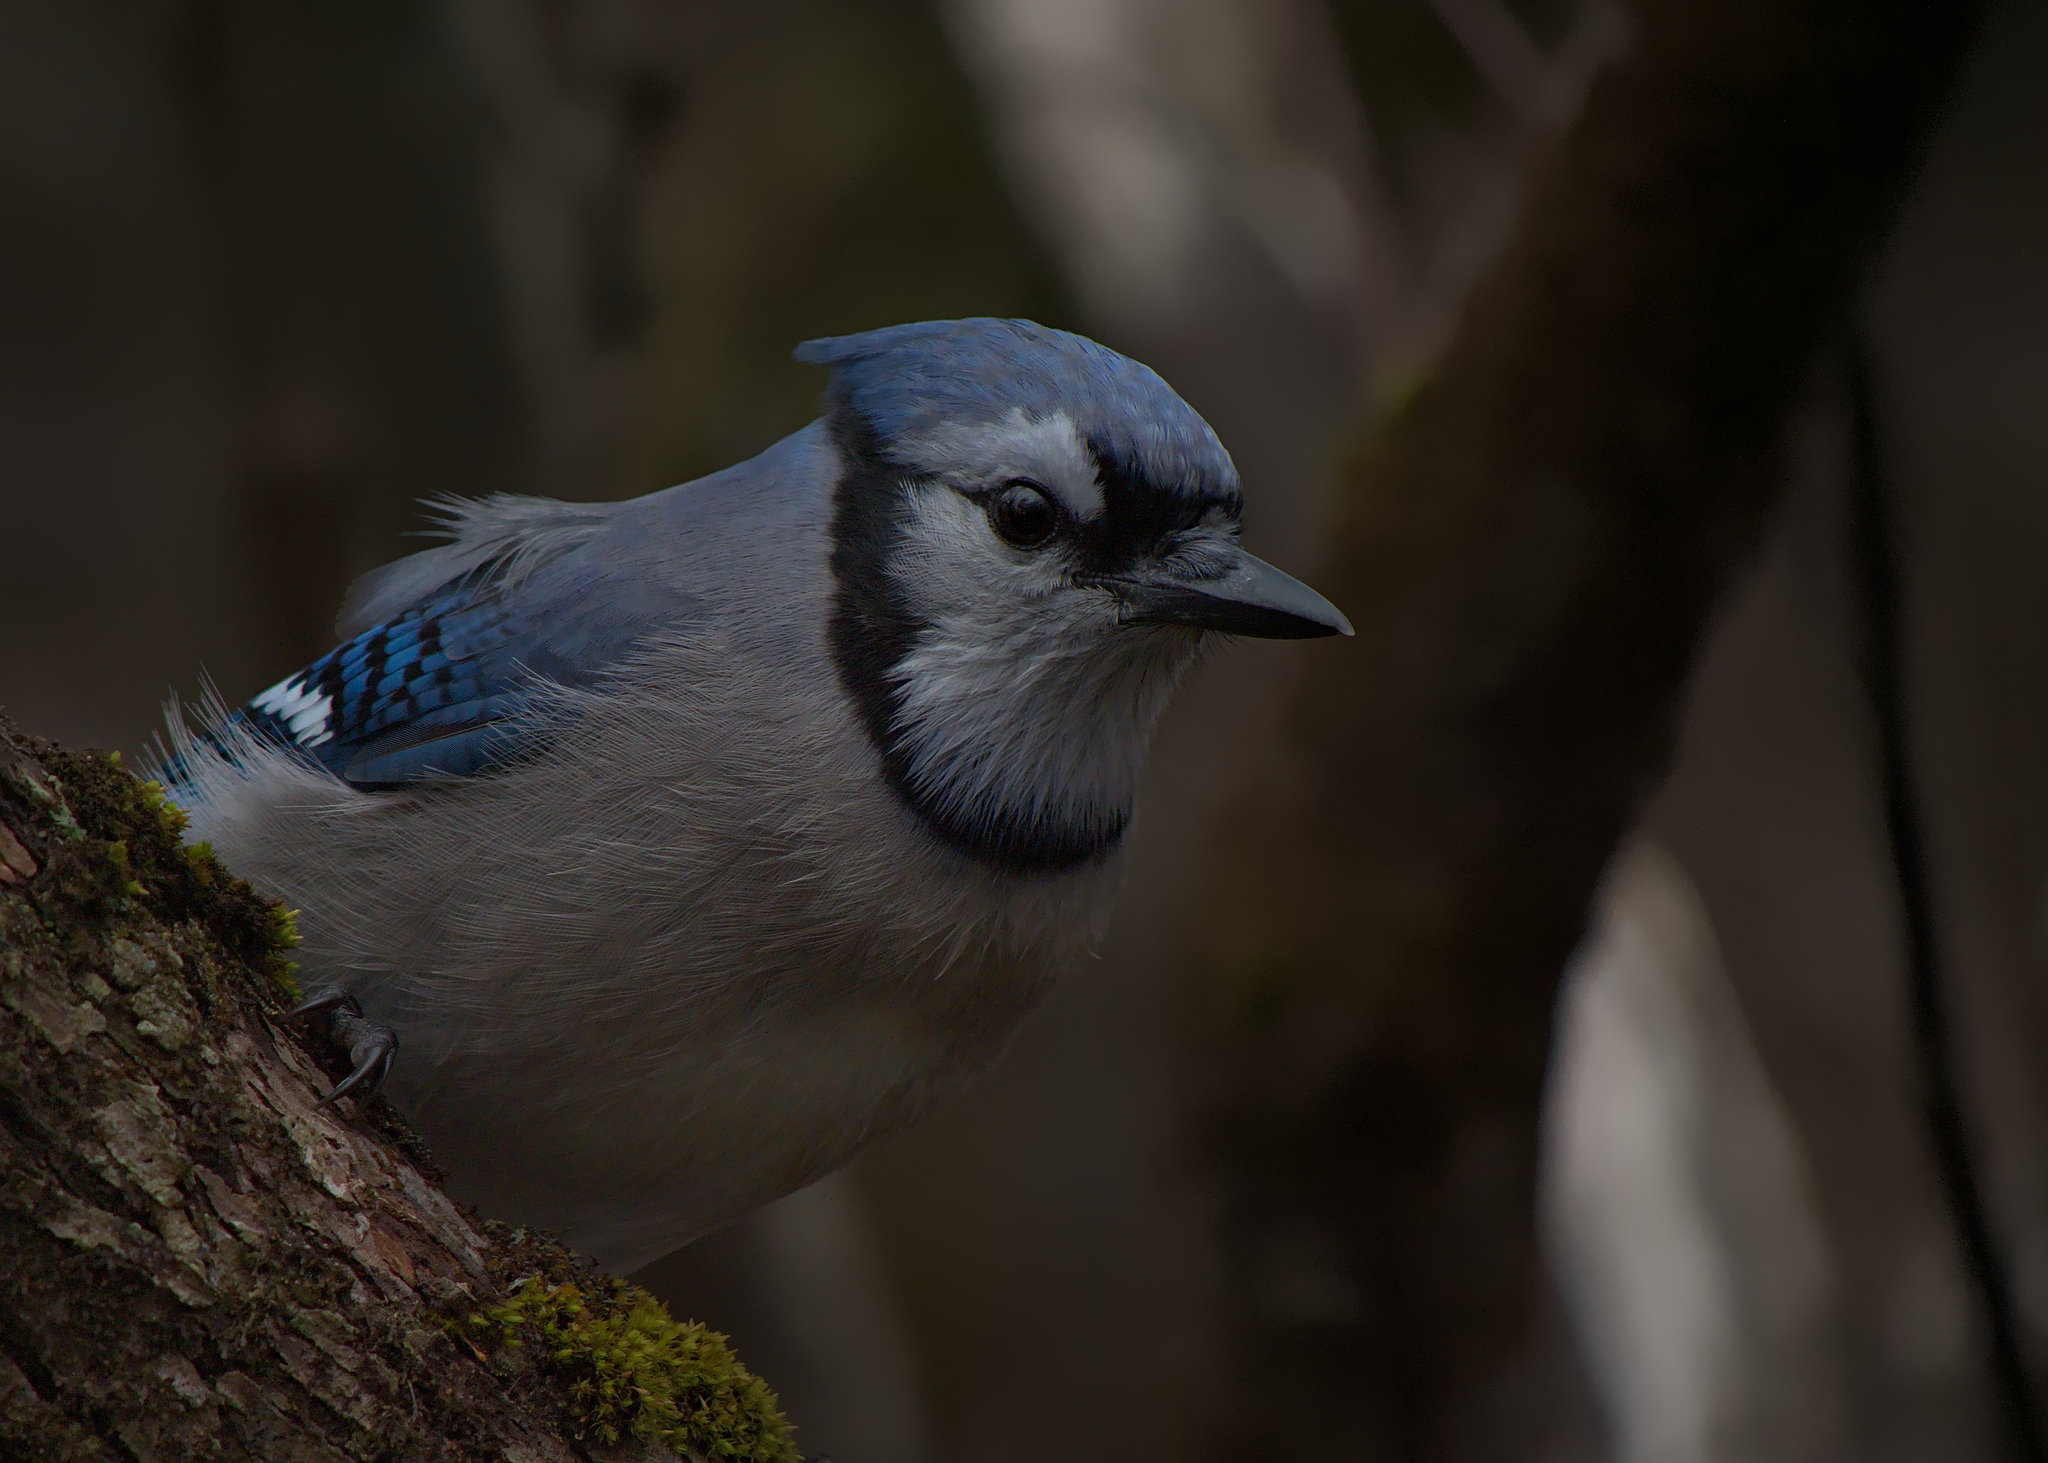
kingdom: Animalia
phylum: Chordata
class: Aves
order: Passeriformes
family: Corvidae
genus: Cyanocitta
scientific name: Cyanocitta cristata
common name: Blue jay
